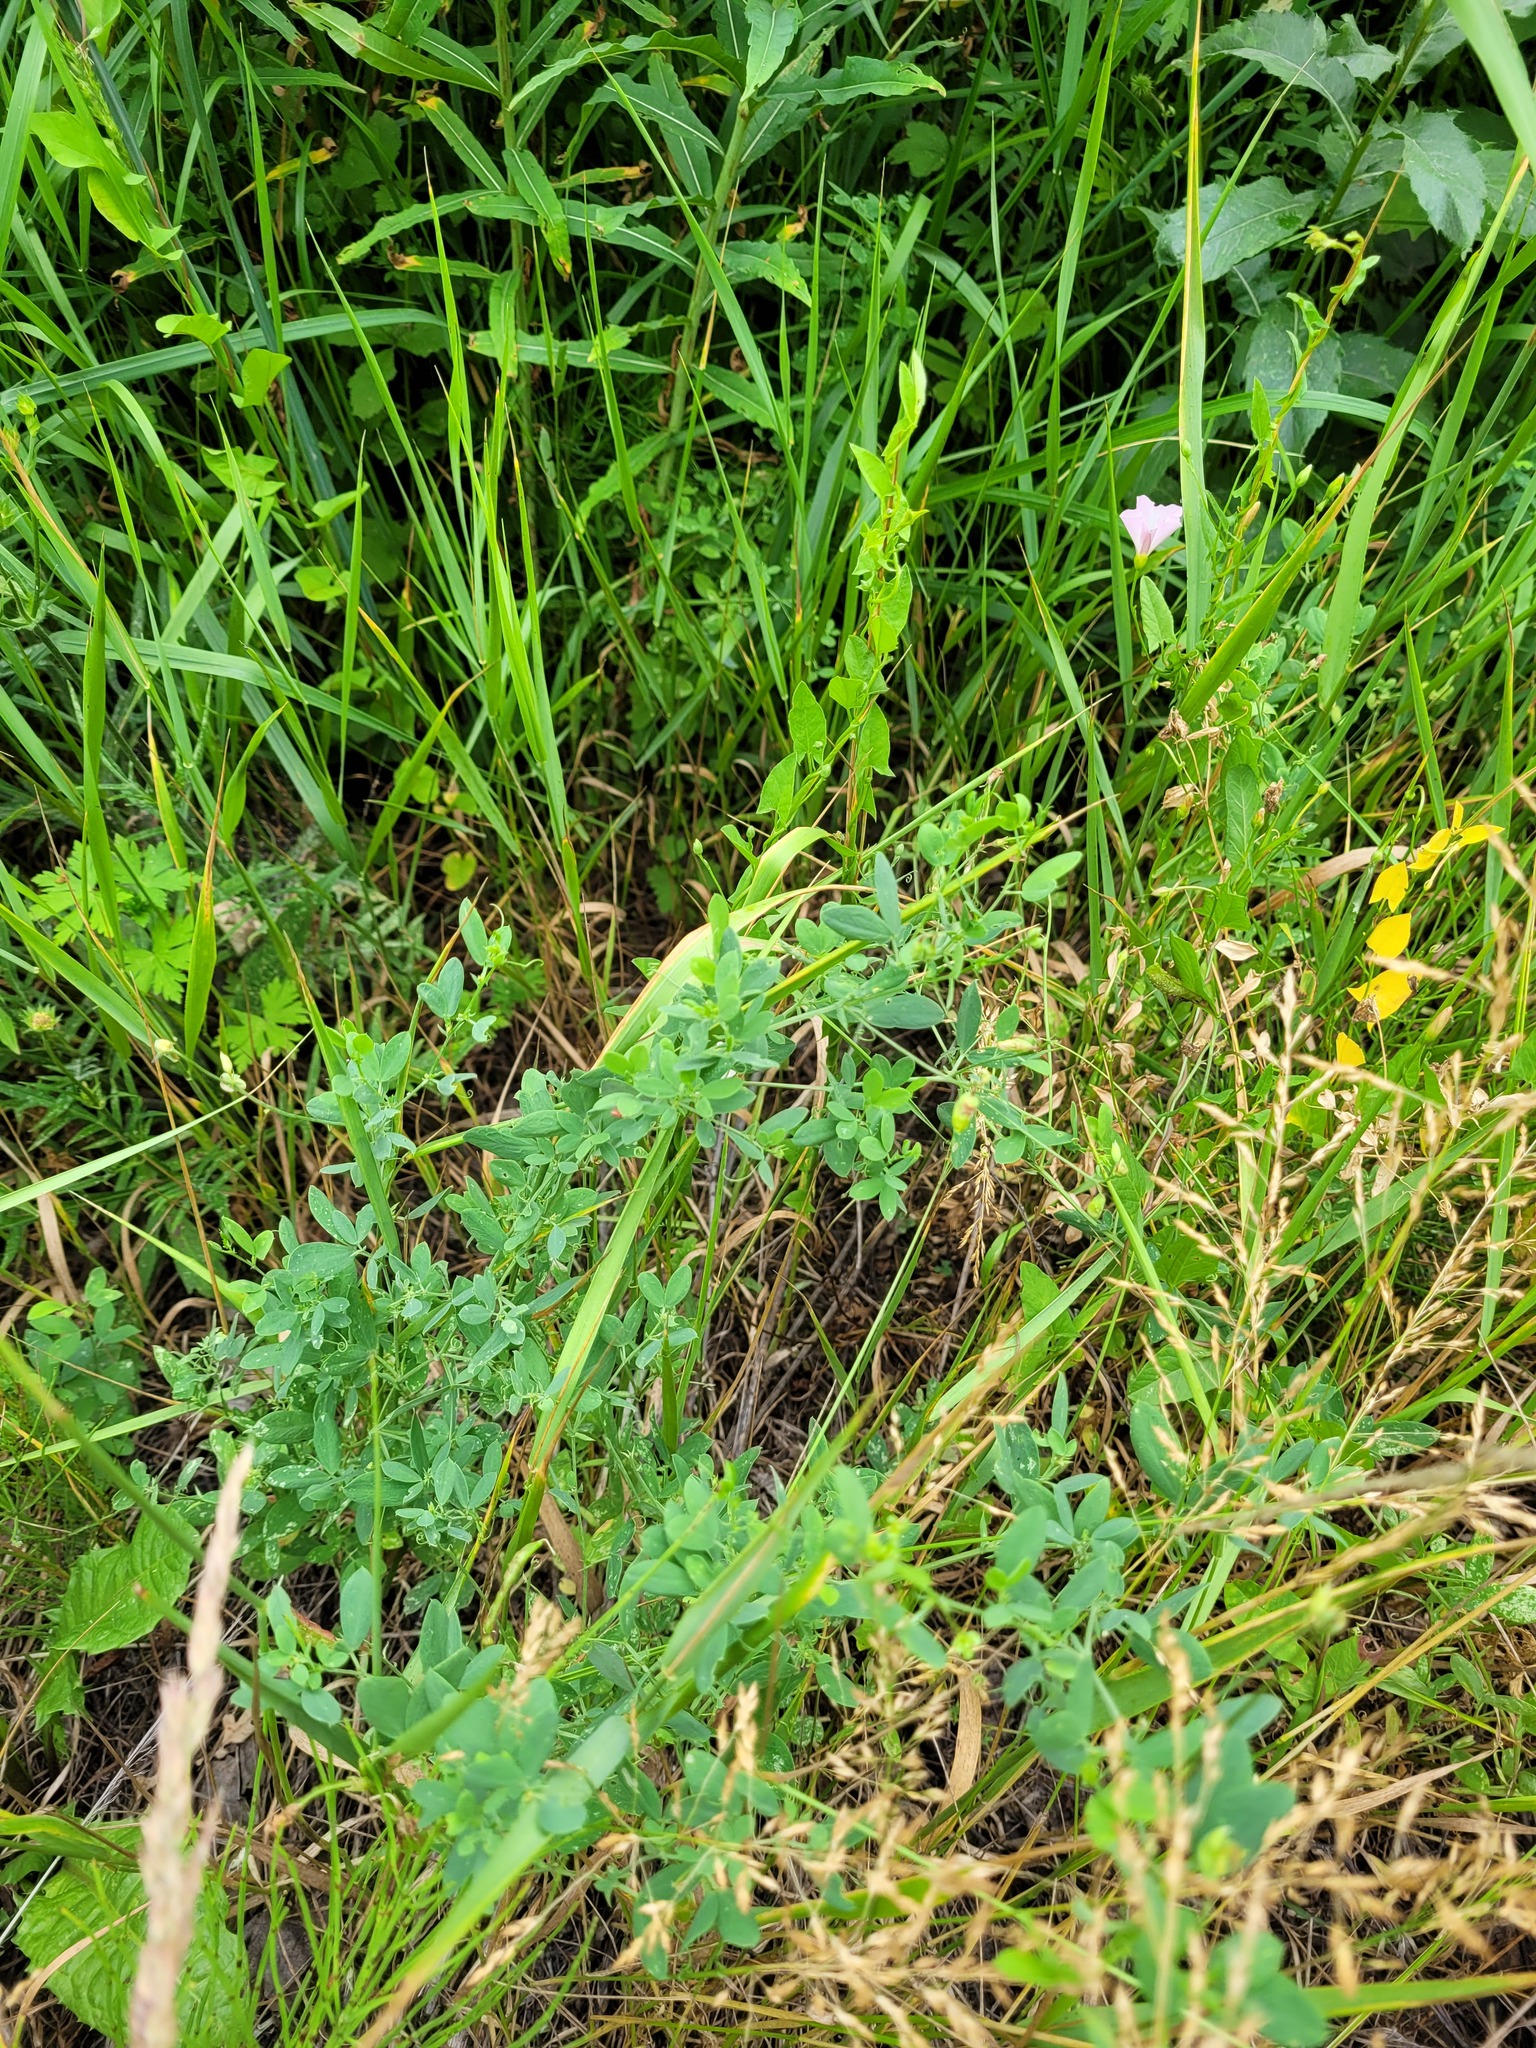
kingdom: Plantae
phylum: Tracheophyta
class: Magnoliopsida
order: Fabales
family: Fabaceae
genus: Lathyrus
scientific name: Lathyrus tuberosus
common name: Tuberous pea
